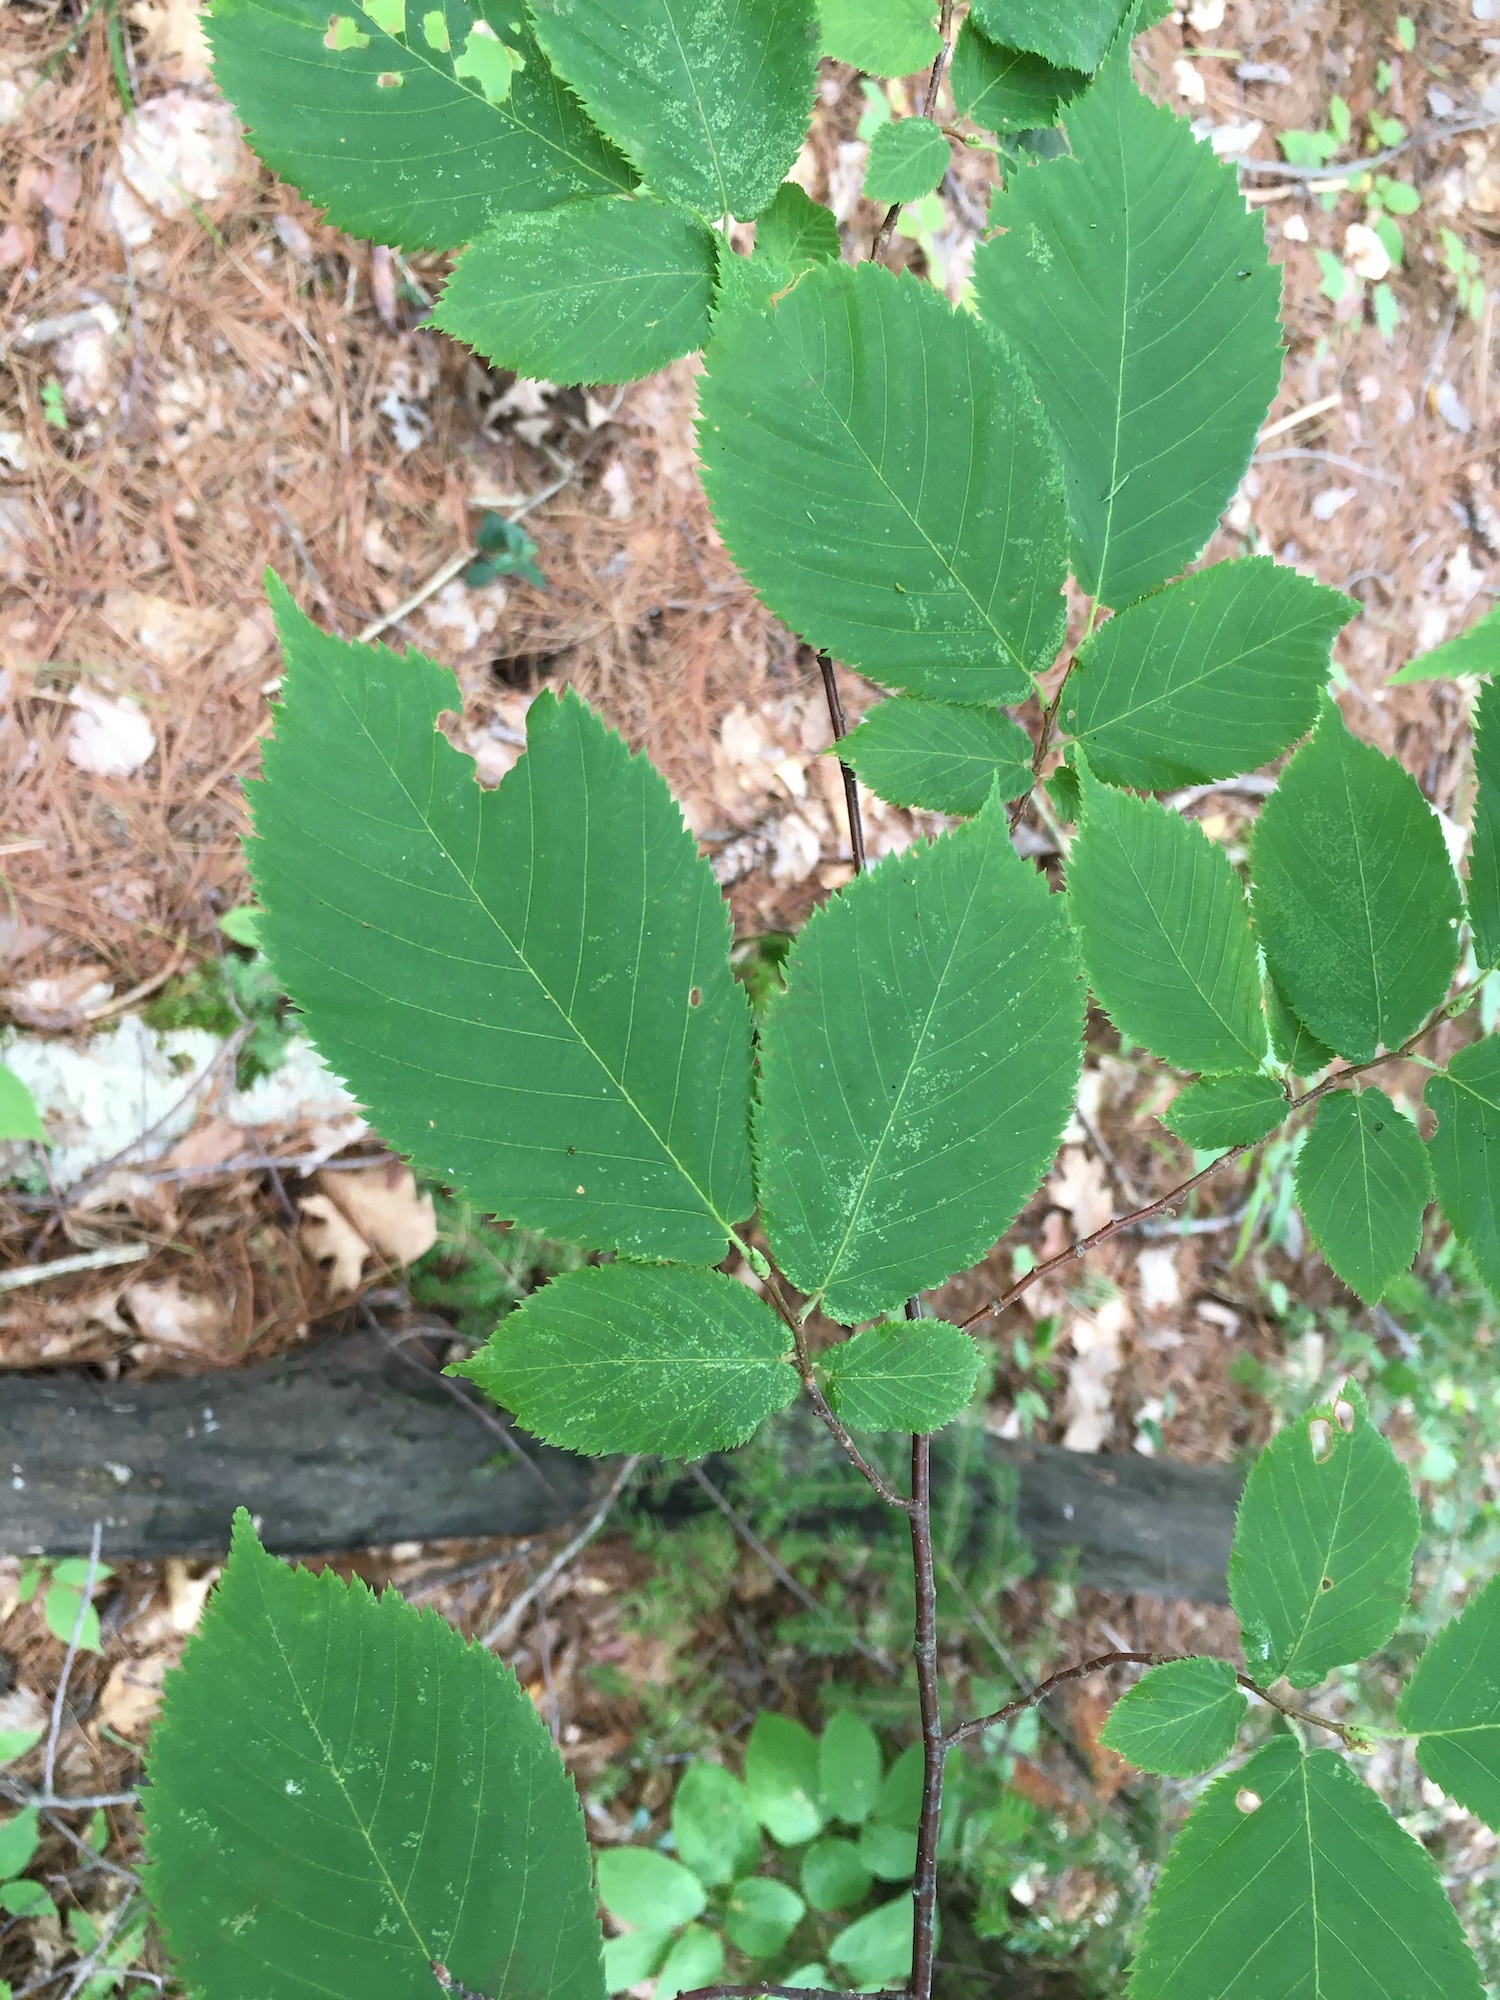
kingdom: Plantae
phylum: Tracheophyta
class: Magnoliopsida
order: Fagales
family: Betulaceae
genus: Ostrya
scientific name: Ostrya virginiana
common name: Ironwood
